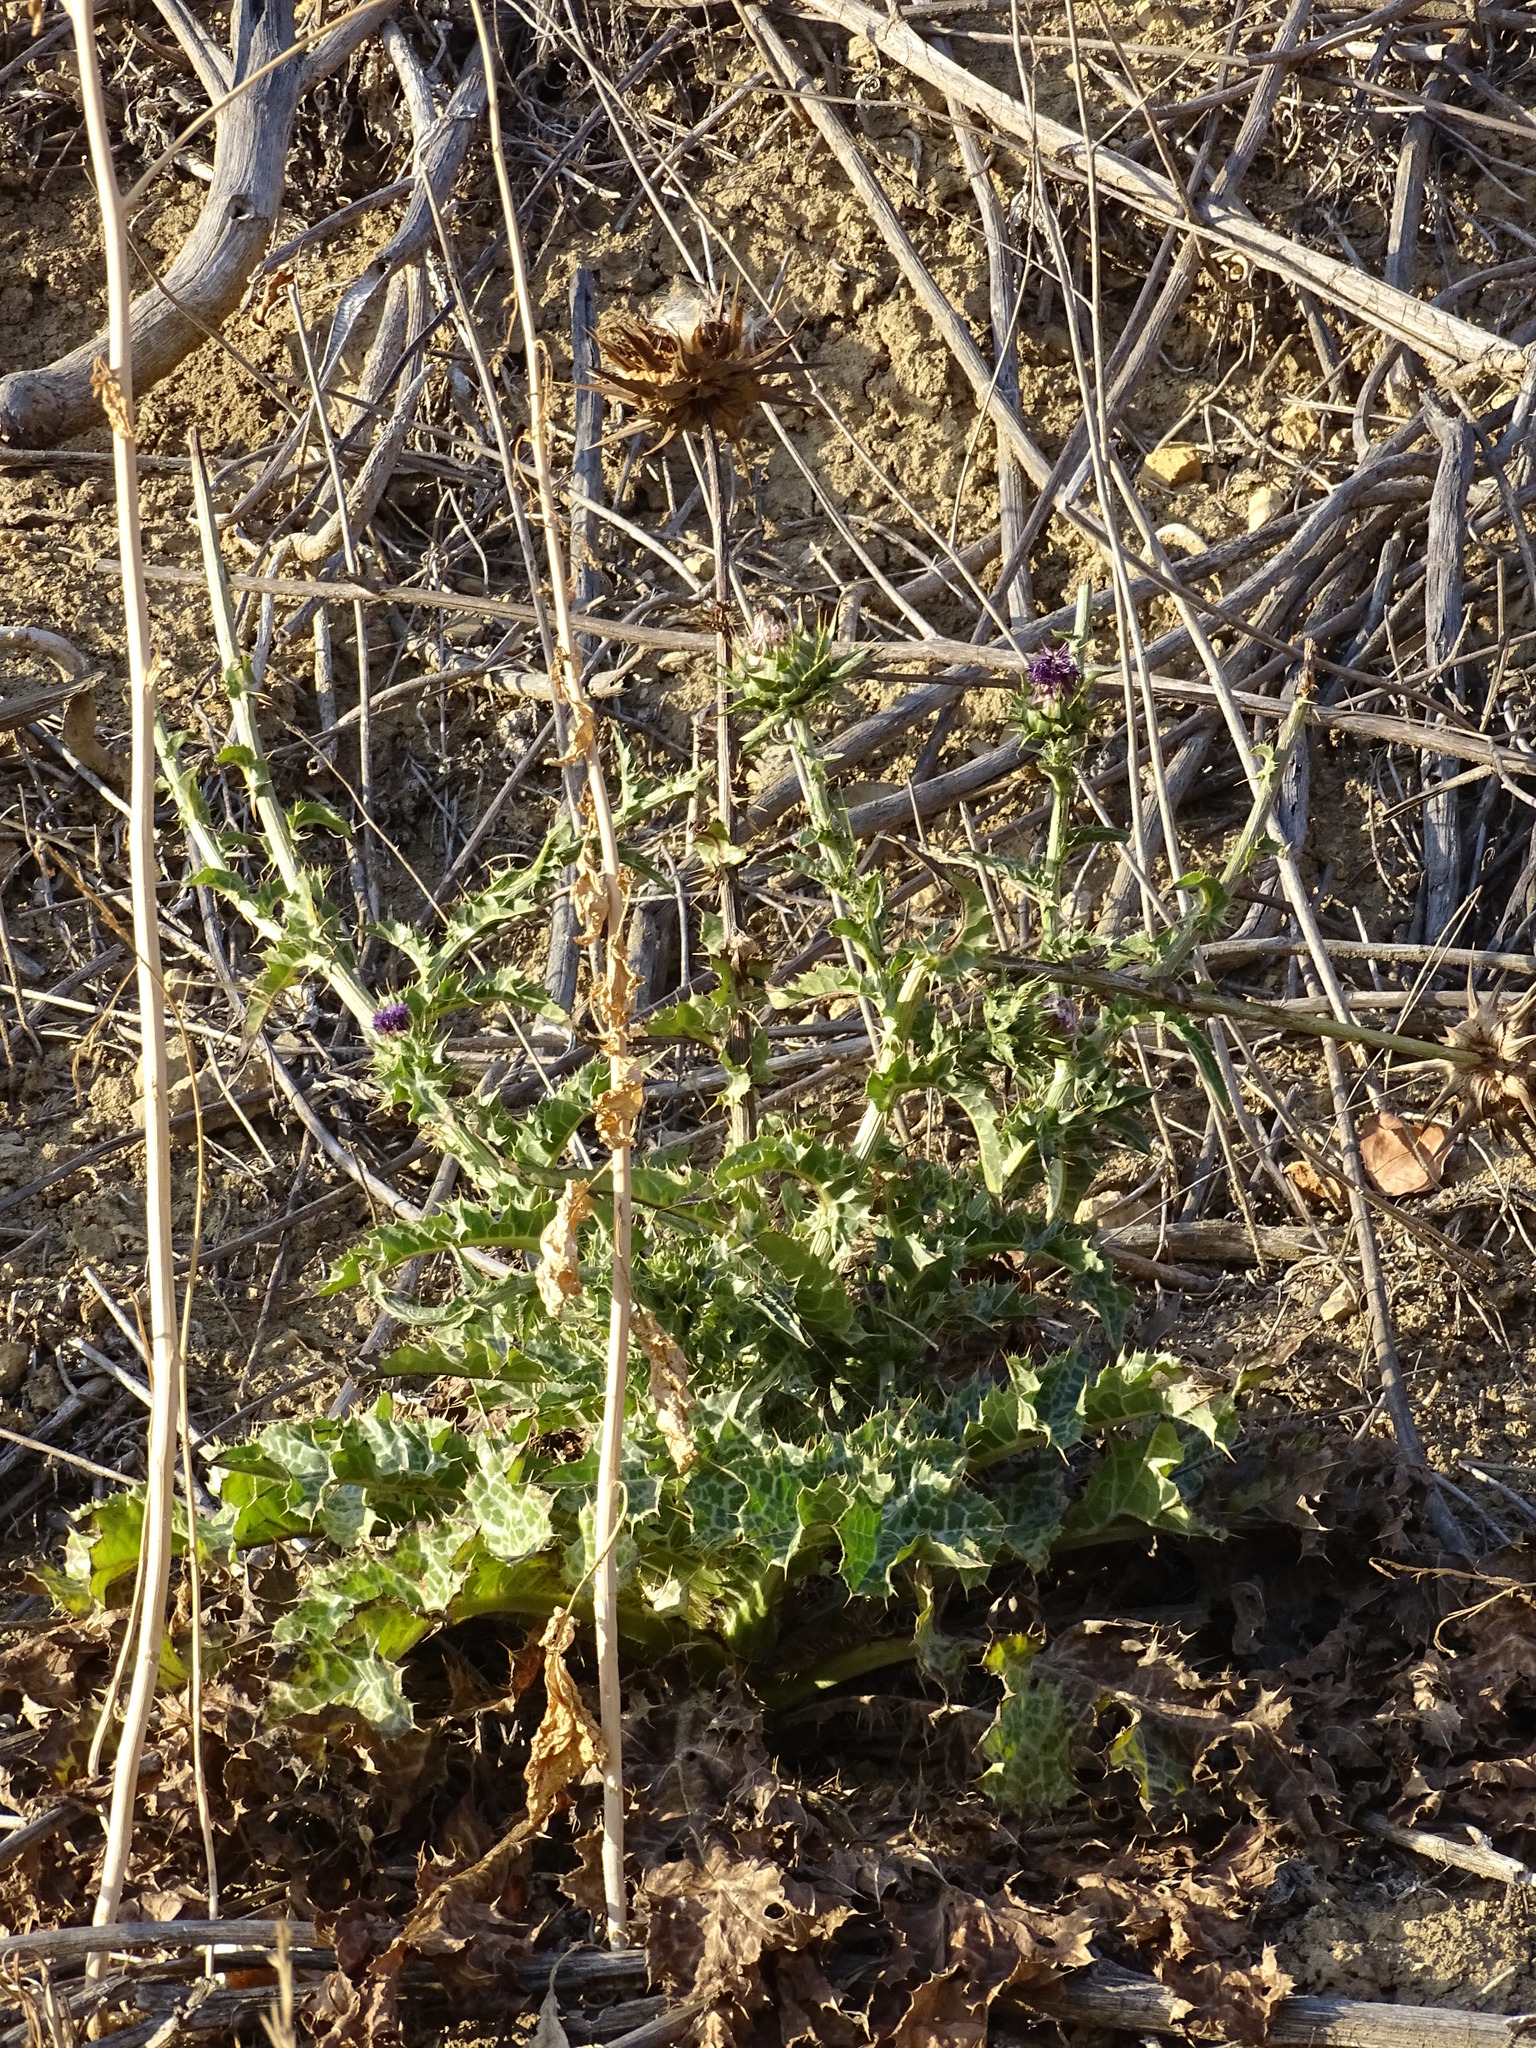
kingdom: Plantae
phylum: Tracheophyta
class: Magnoliopsida
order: Asterales
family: Asteraceae
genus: Silybum
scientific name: Silybum marianum
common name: Milk thistle
